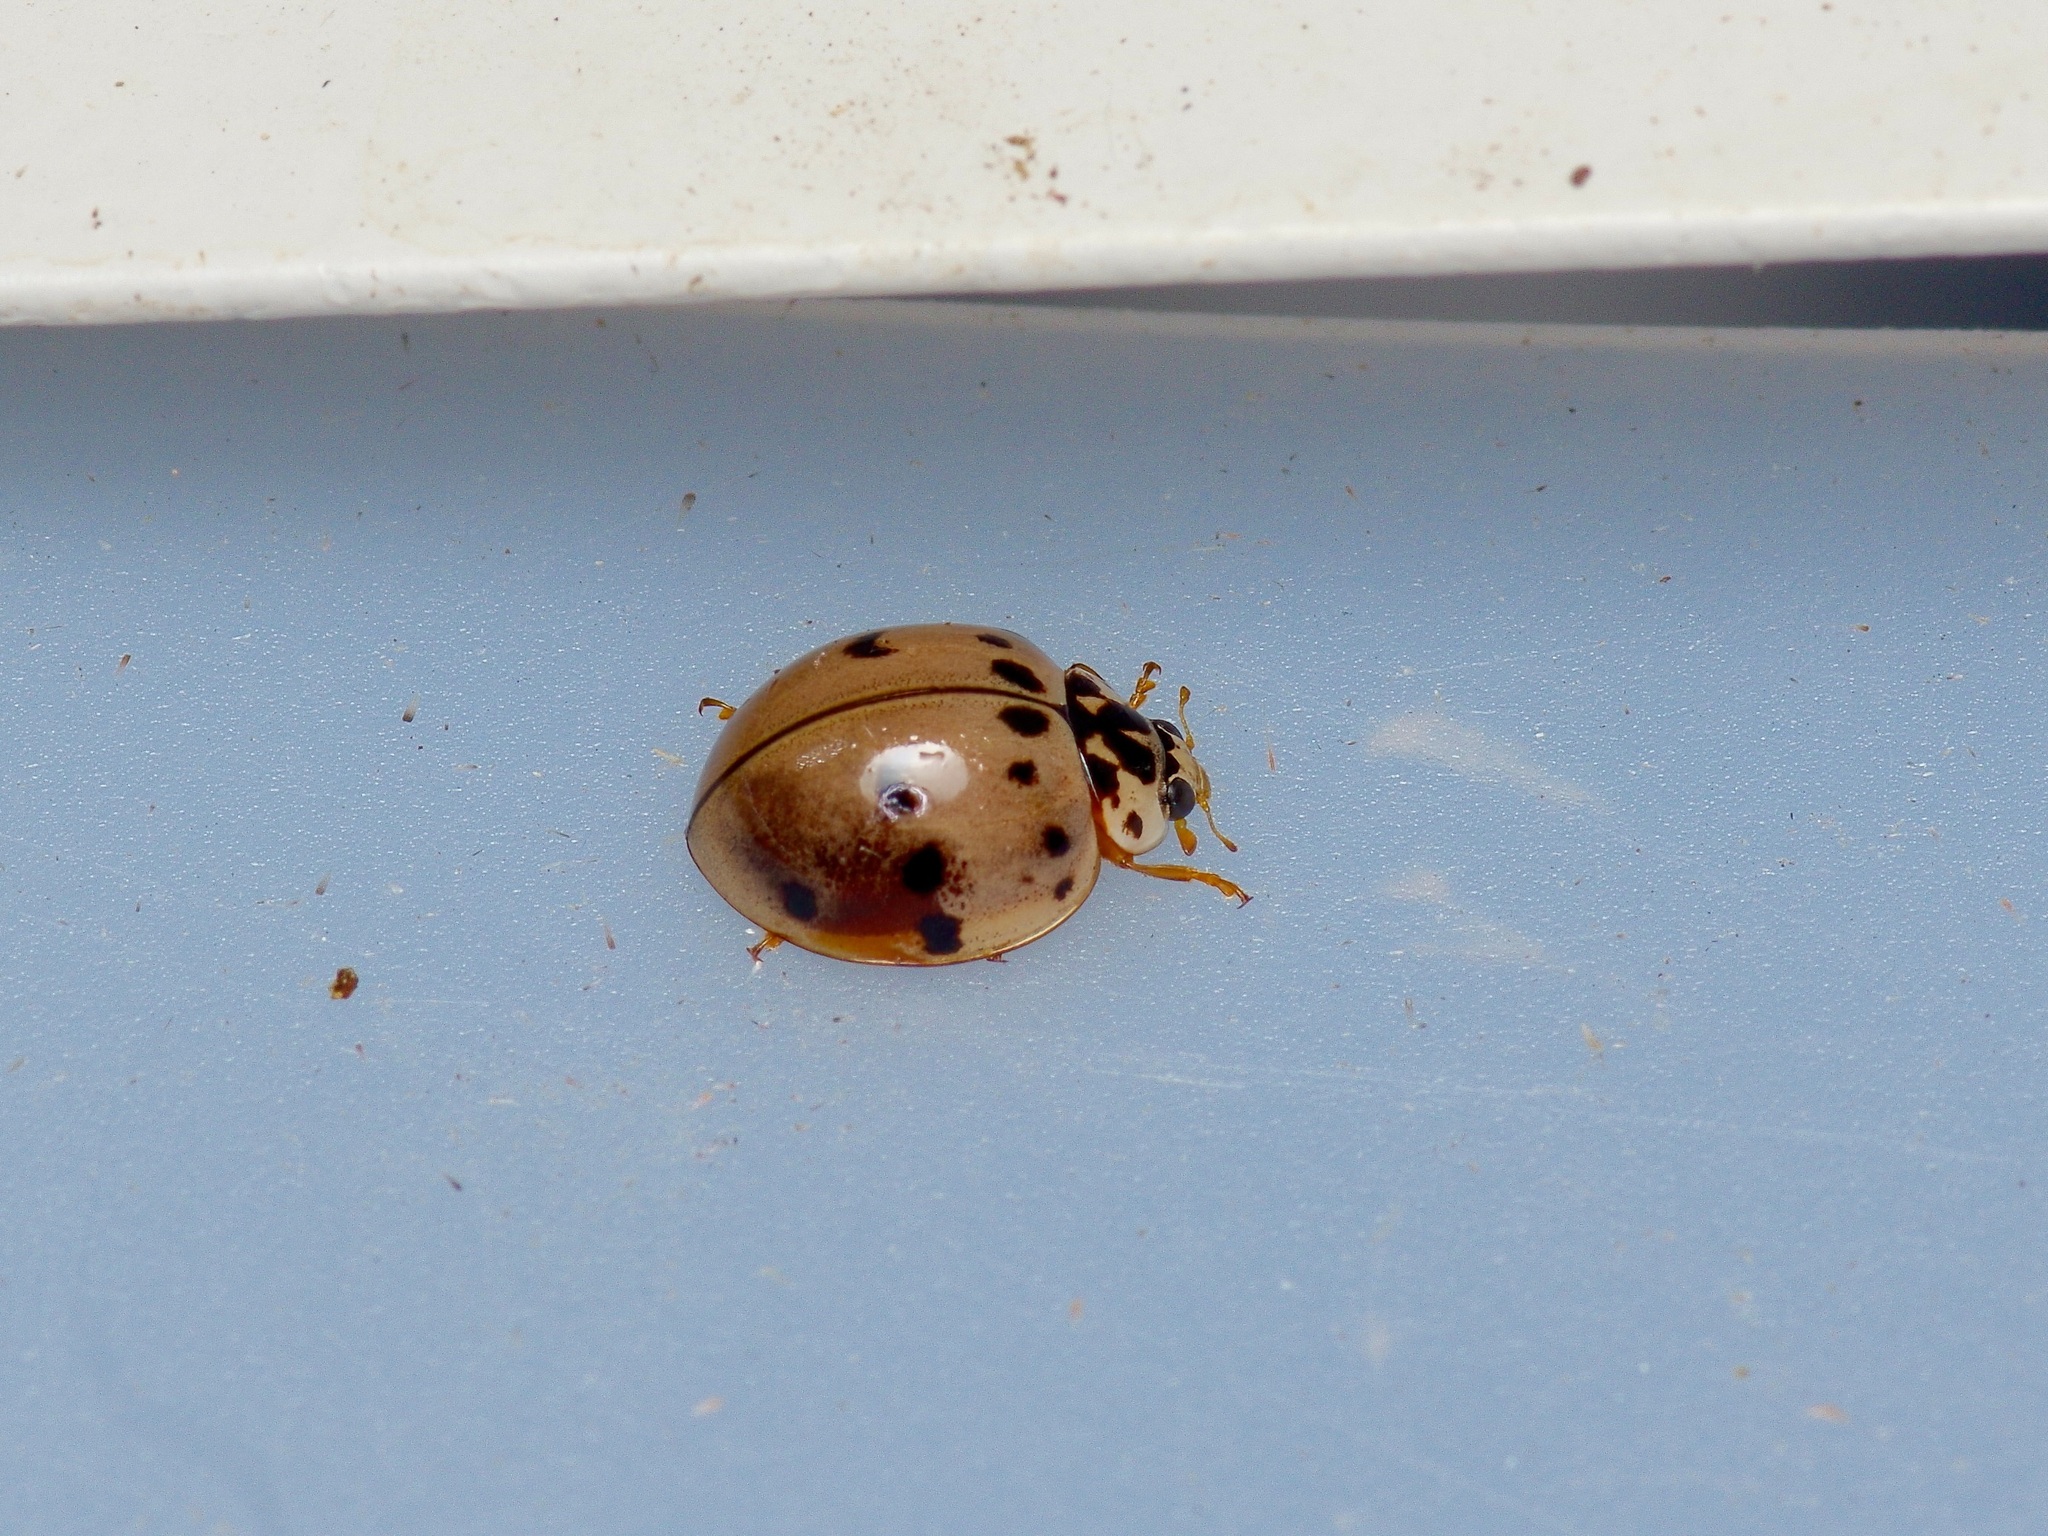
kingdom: Animalia
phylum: Arthropoda
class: Insecta
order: Coleoptera
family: Coccinellidae
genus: Olla
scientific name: Olla v-nigrum
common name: Ashy gray lady beetle
